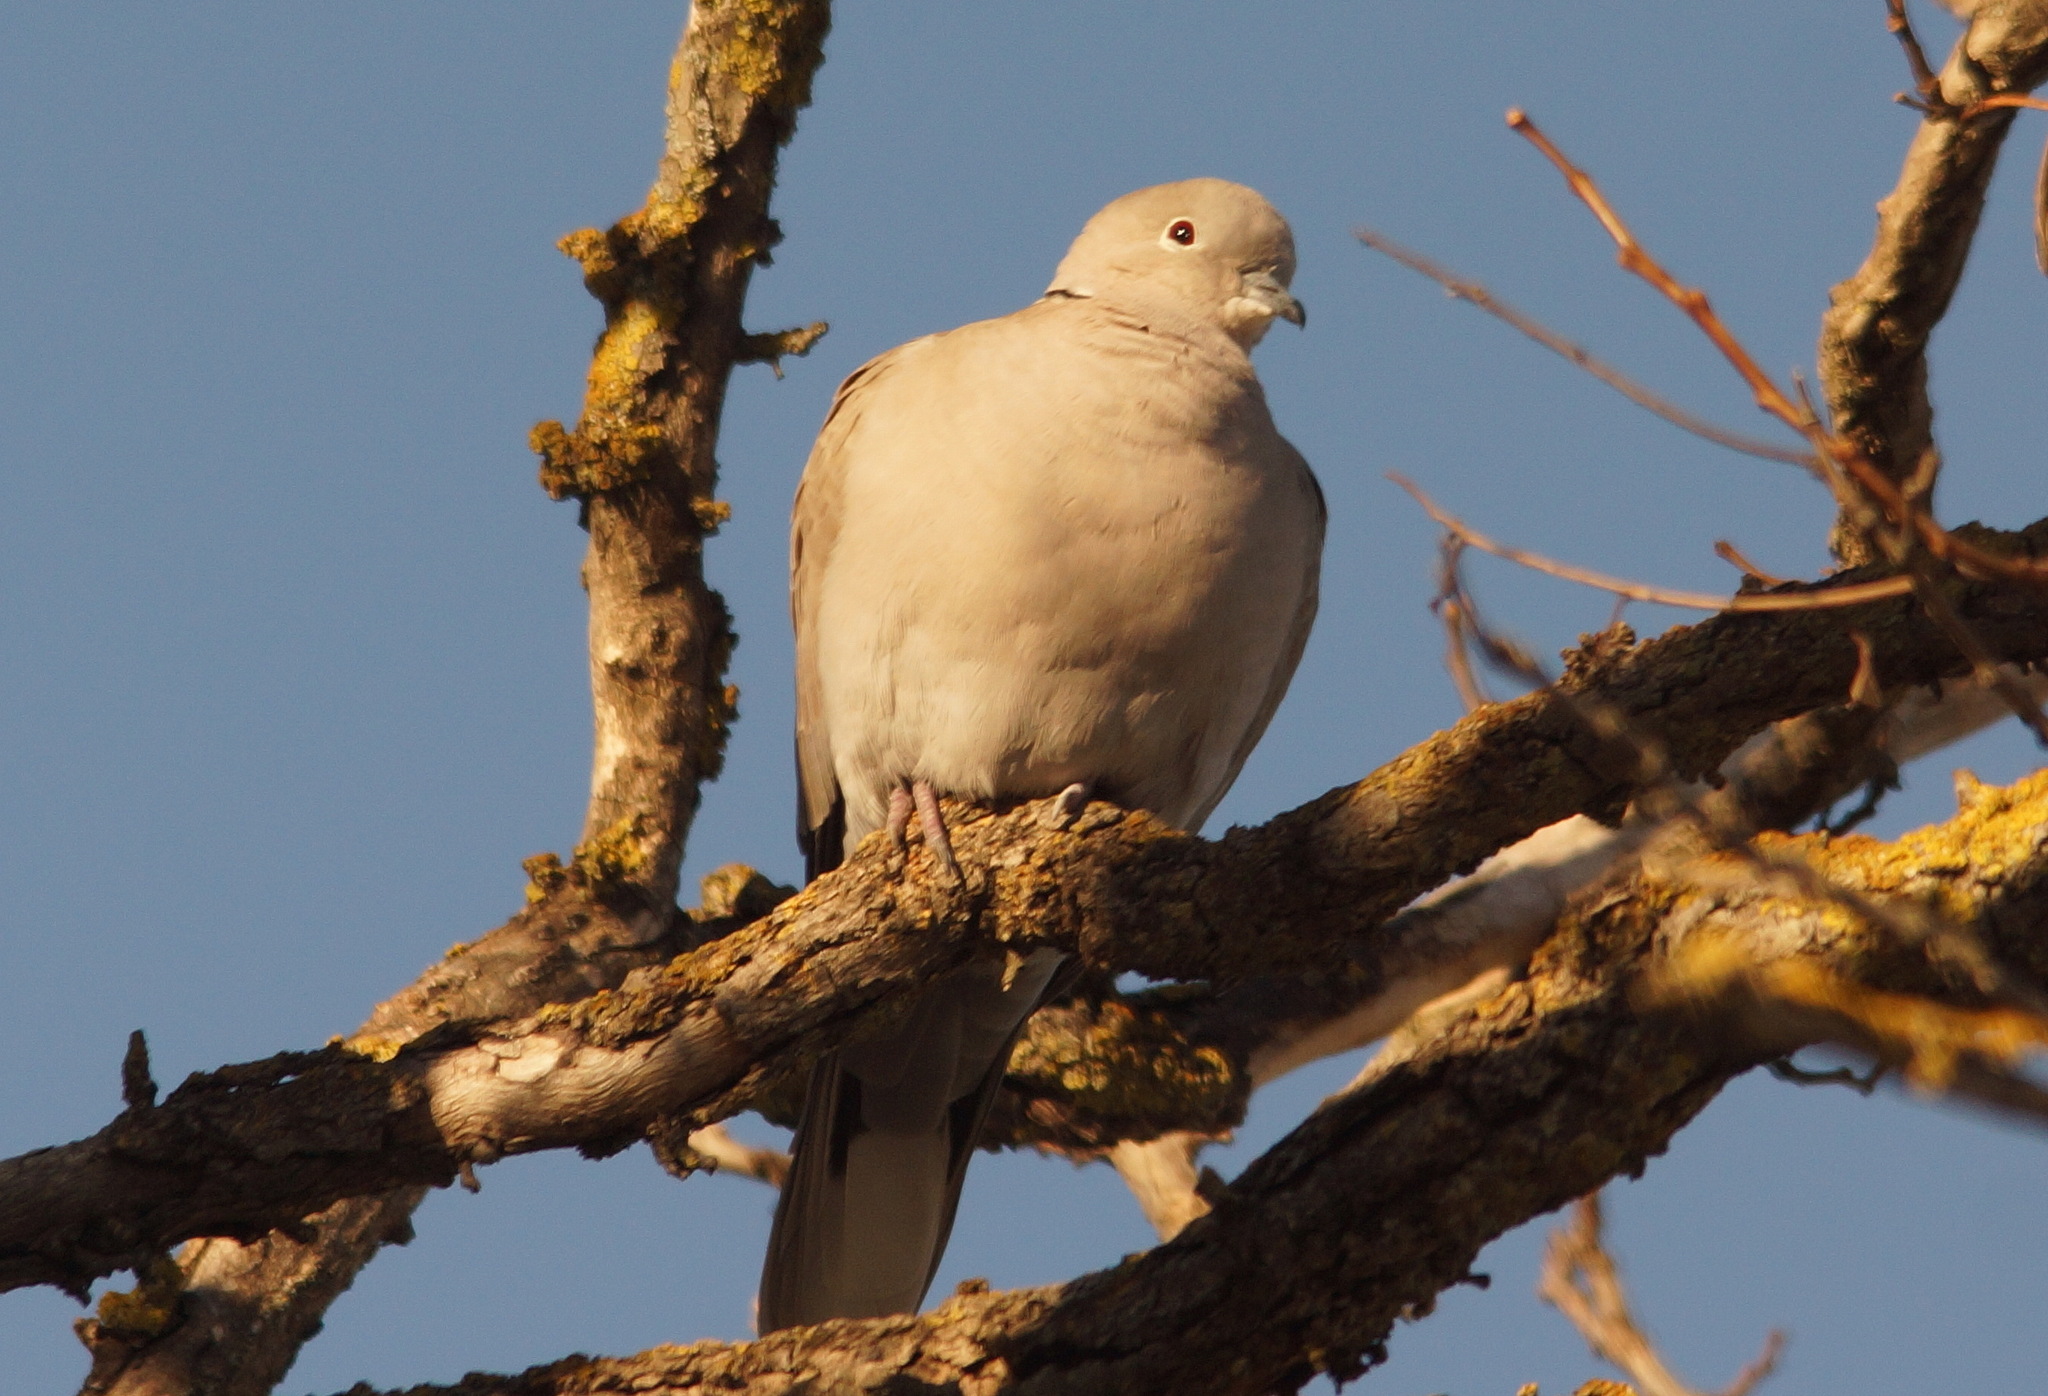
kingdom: Animalia
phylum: Chordata
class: Aves
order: Columbiformes
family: Columbidae
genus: Streptopelia
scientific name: Streptopelia decaocto
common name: Eurasian collared dove
